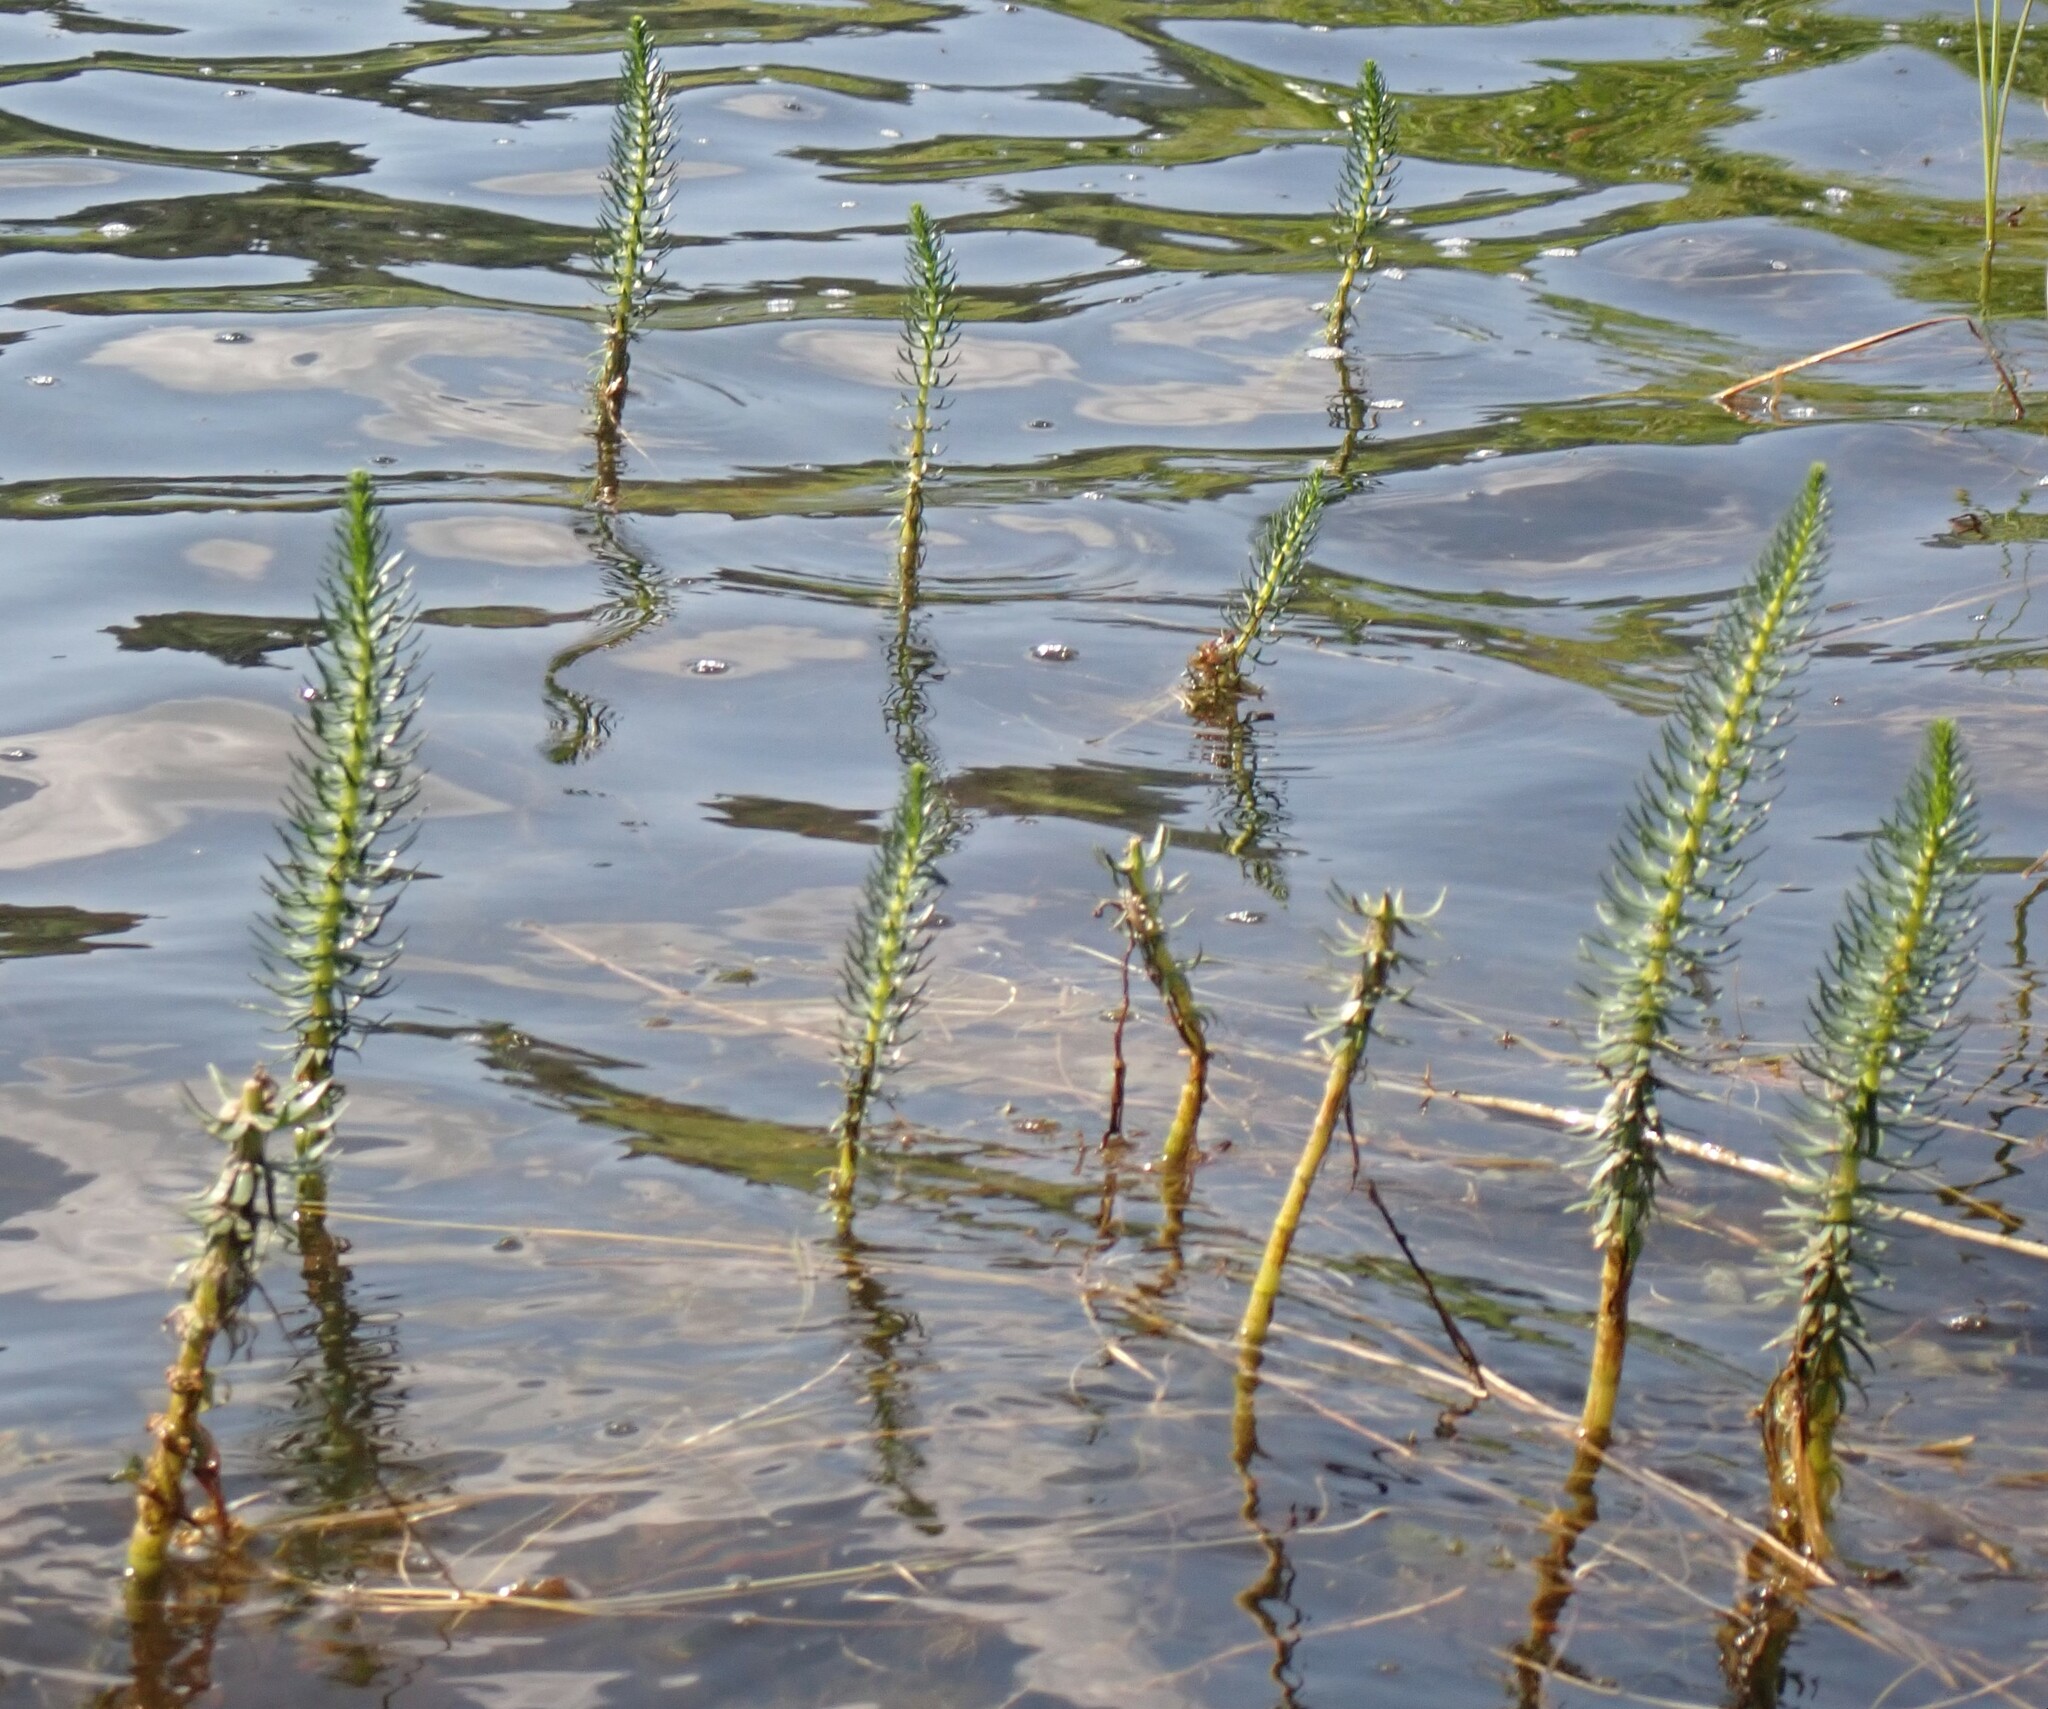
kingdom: Plantae
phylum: Tracheophyta
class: Magnoliopsida
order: Lamiales
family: Plantaginaceae
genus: Hippuris
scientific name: Hippuris vulgaris
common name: Mare's-tail
